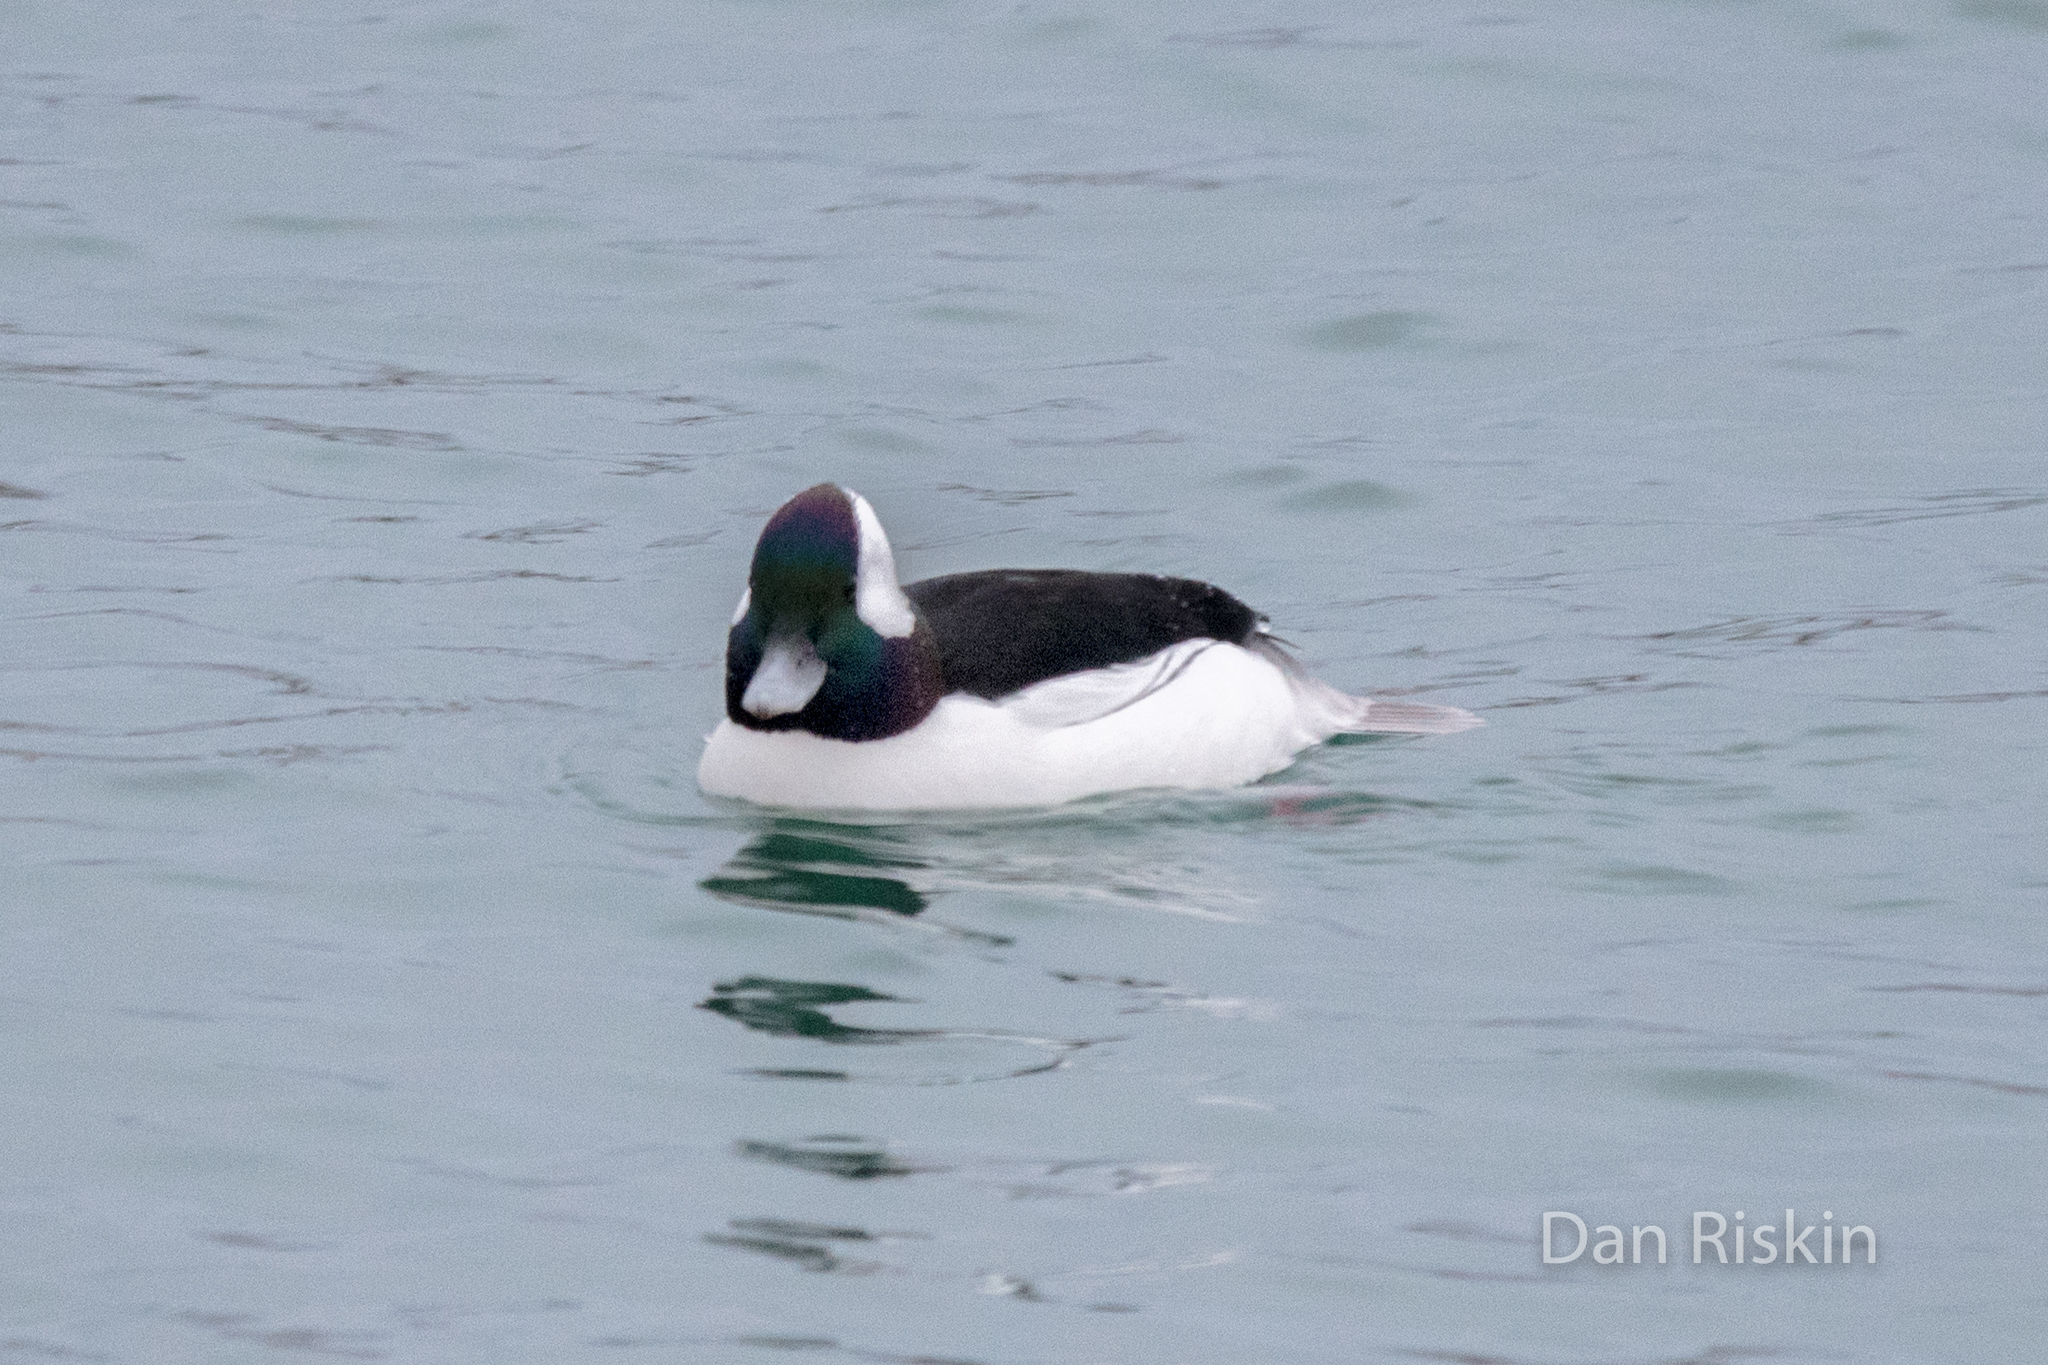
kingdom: Animalia
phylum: Chordata
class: Aves
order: Anseriformes
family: Anatidae
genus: Bucephala
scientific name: Bucephala albeola
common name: Bufflehead
